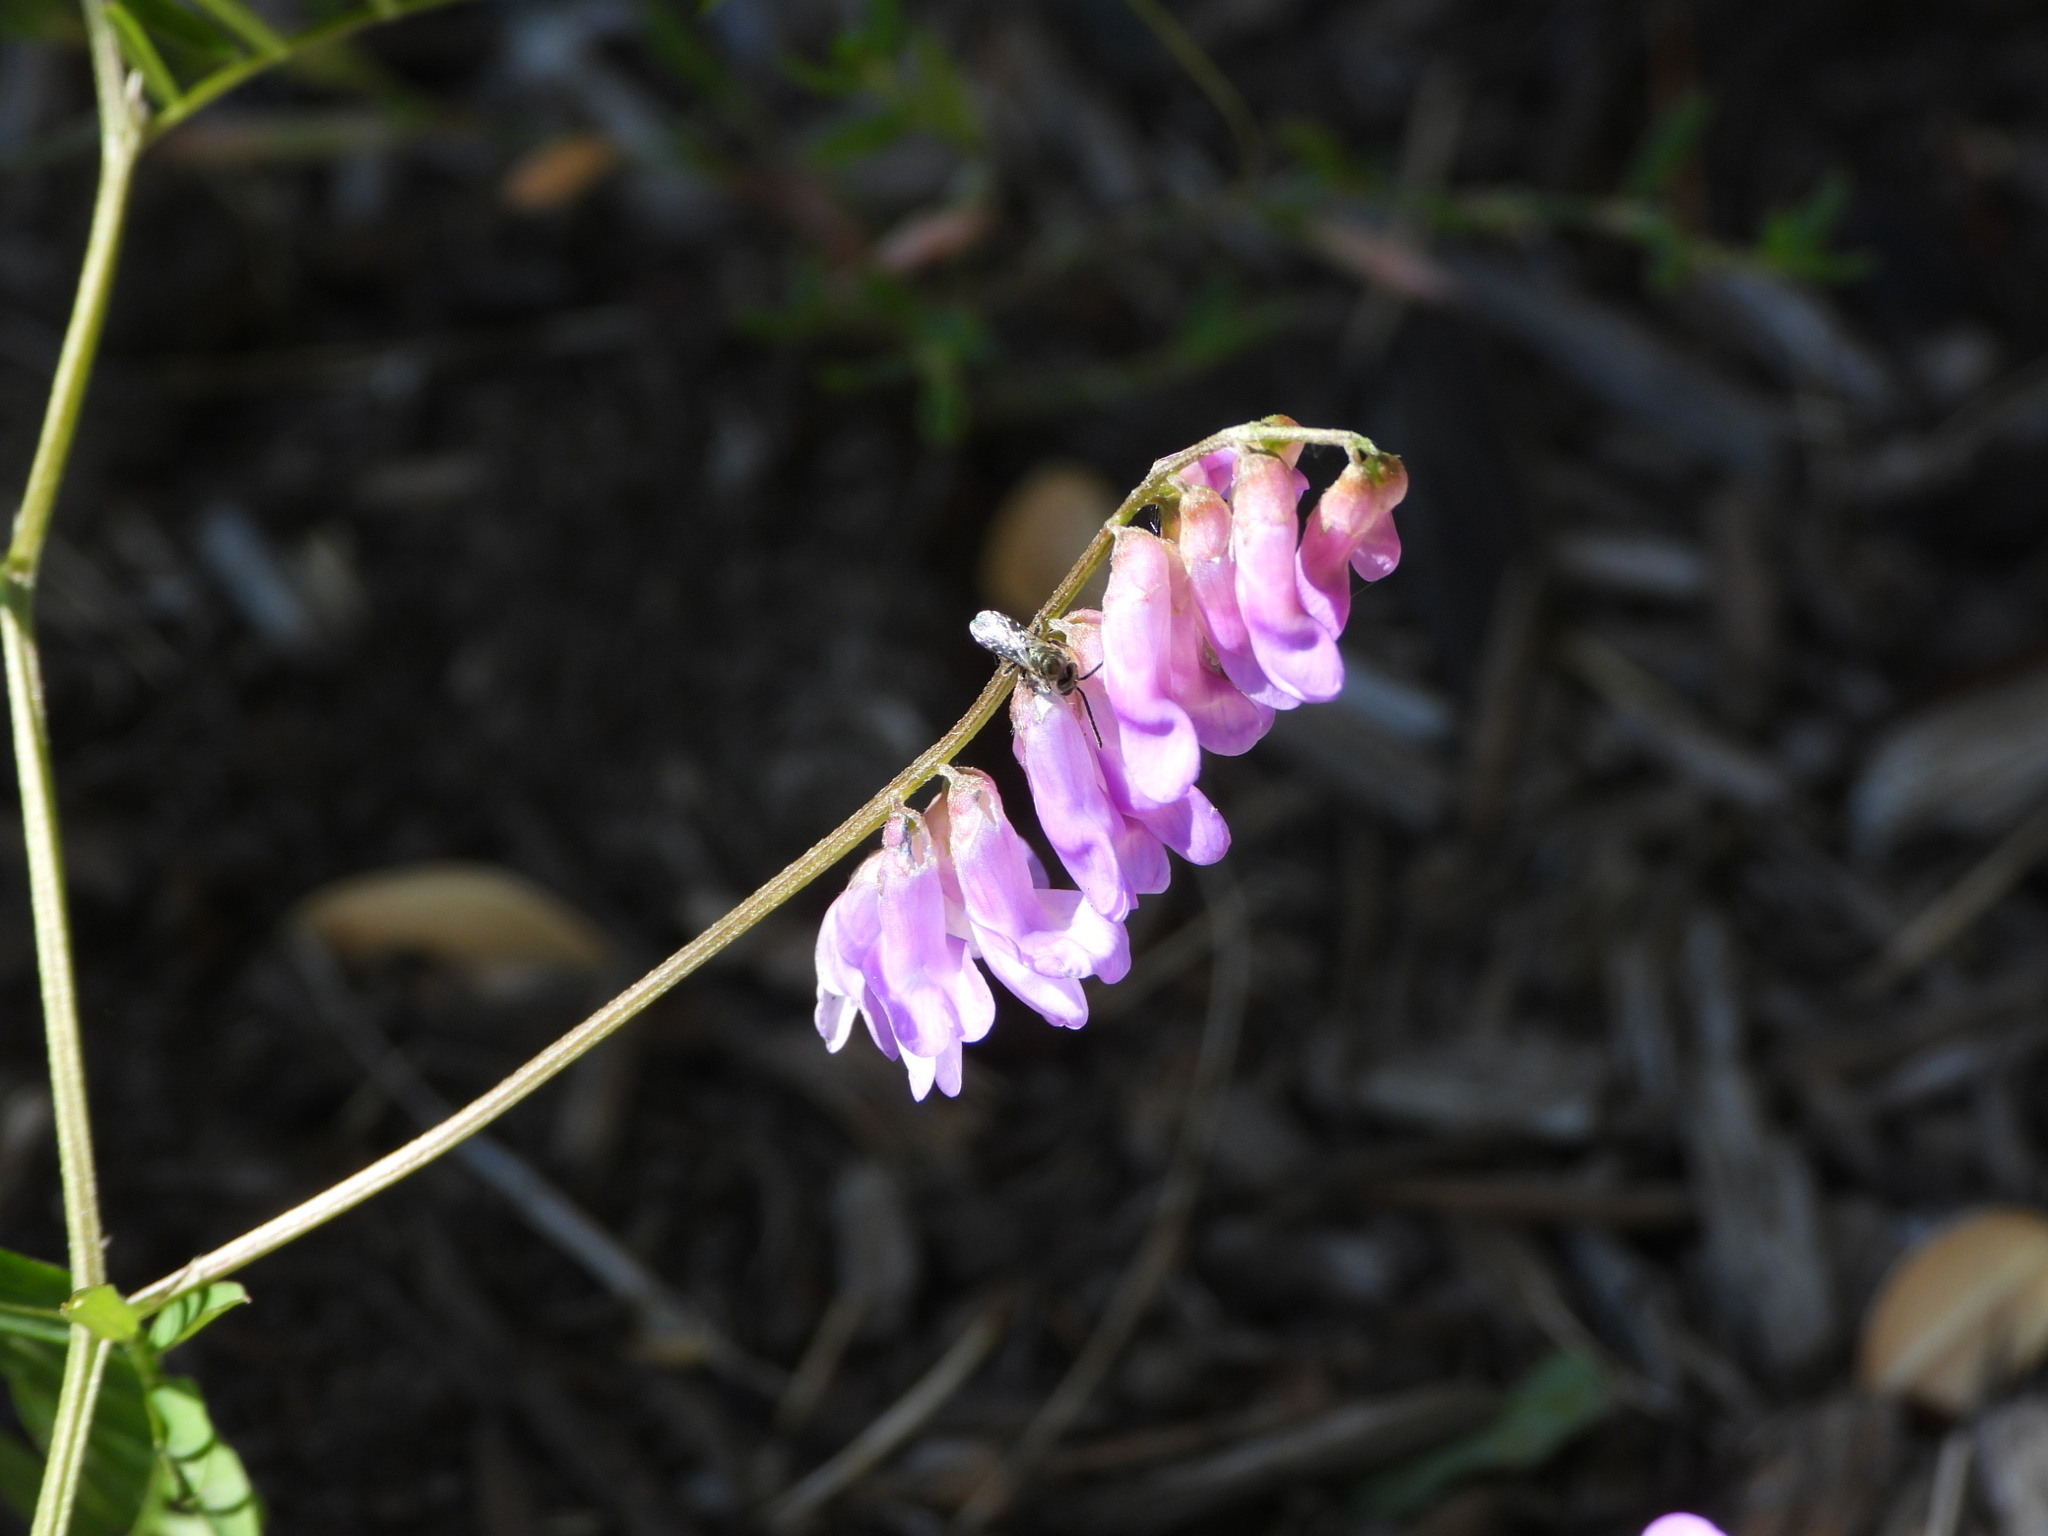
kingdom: Plantae
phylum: Tracheophyta
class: Magnoliopsida
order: Fabales
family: Fabaceae
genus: Vicia
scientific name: Vicia cracca
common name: Bird vetch
